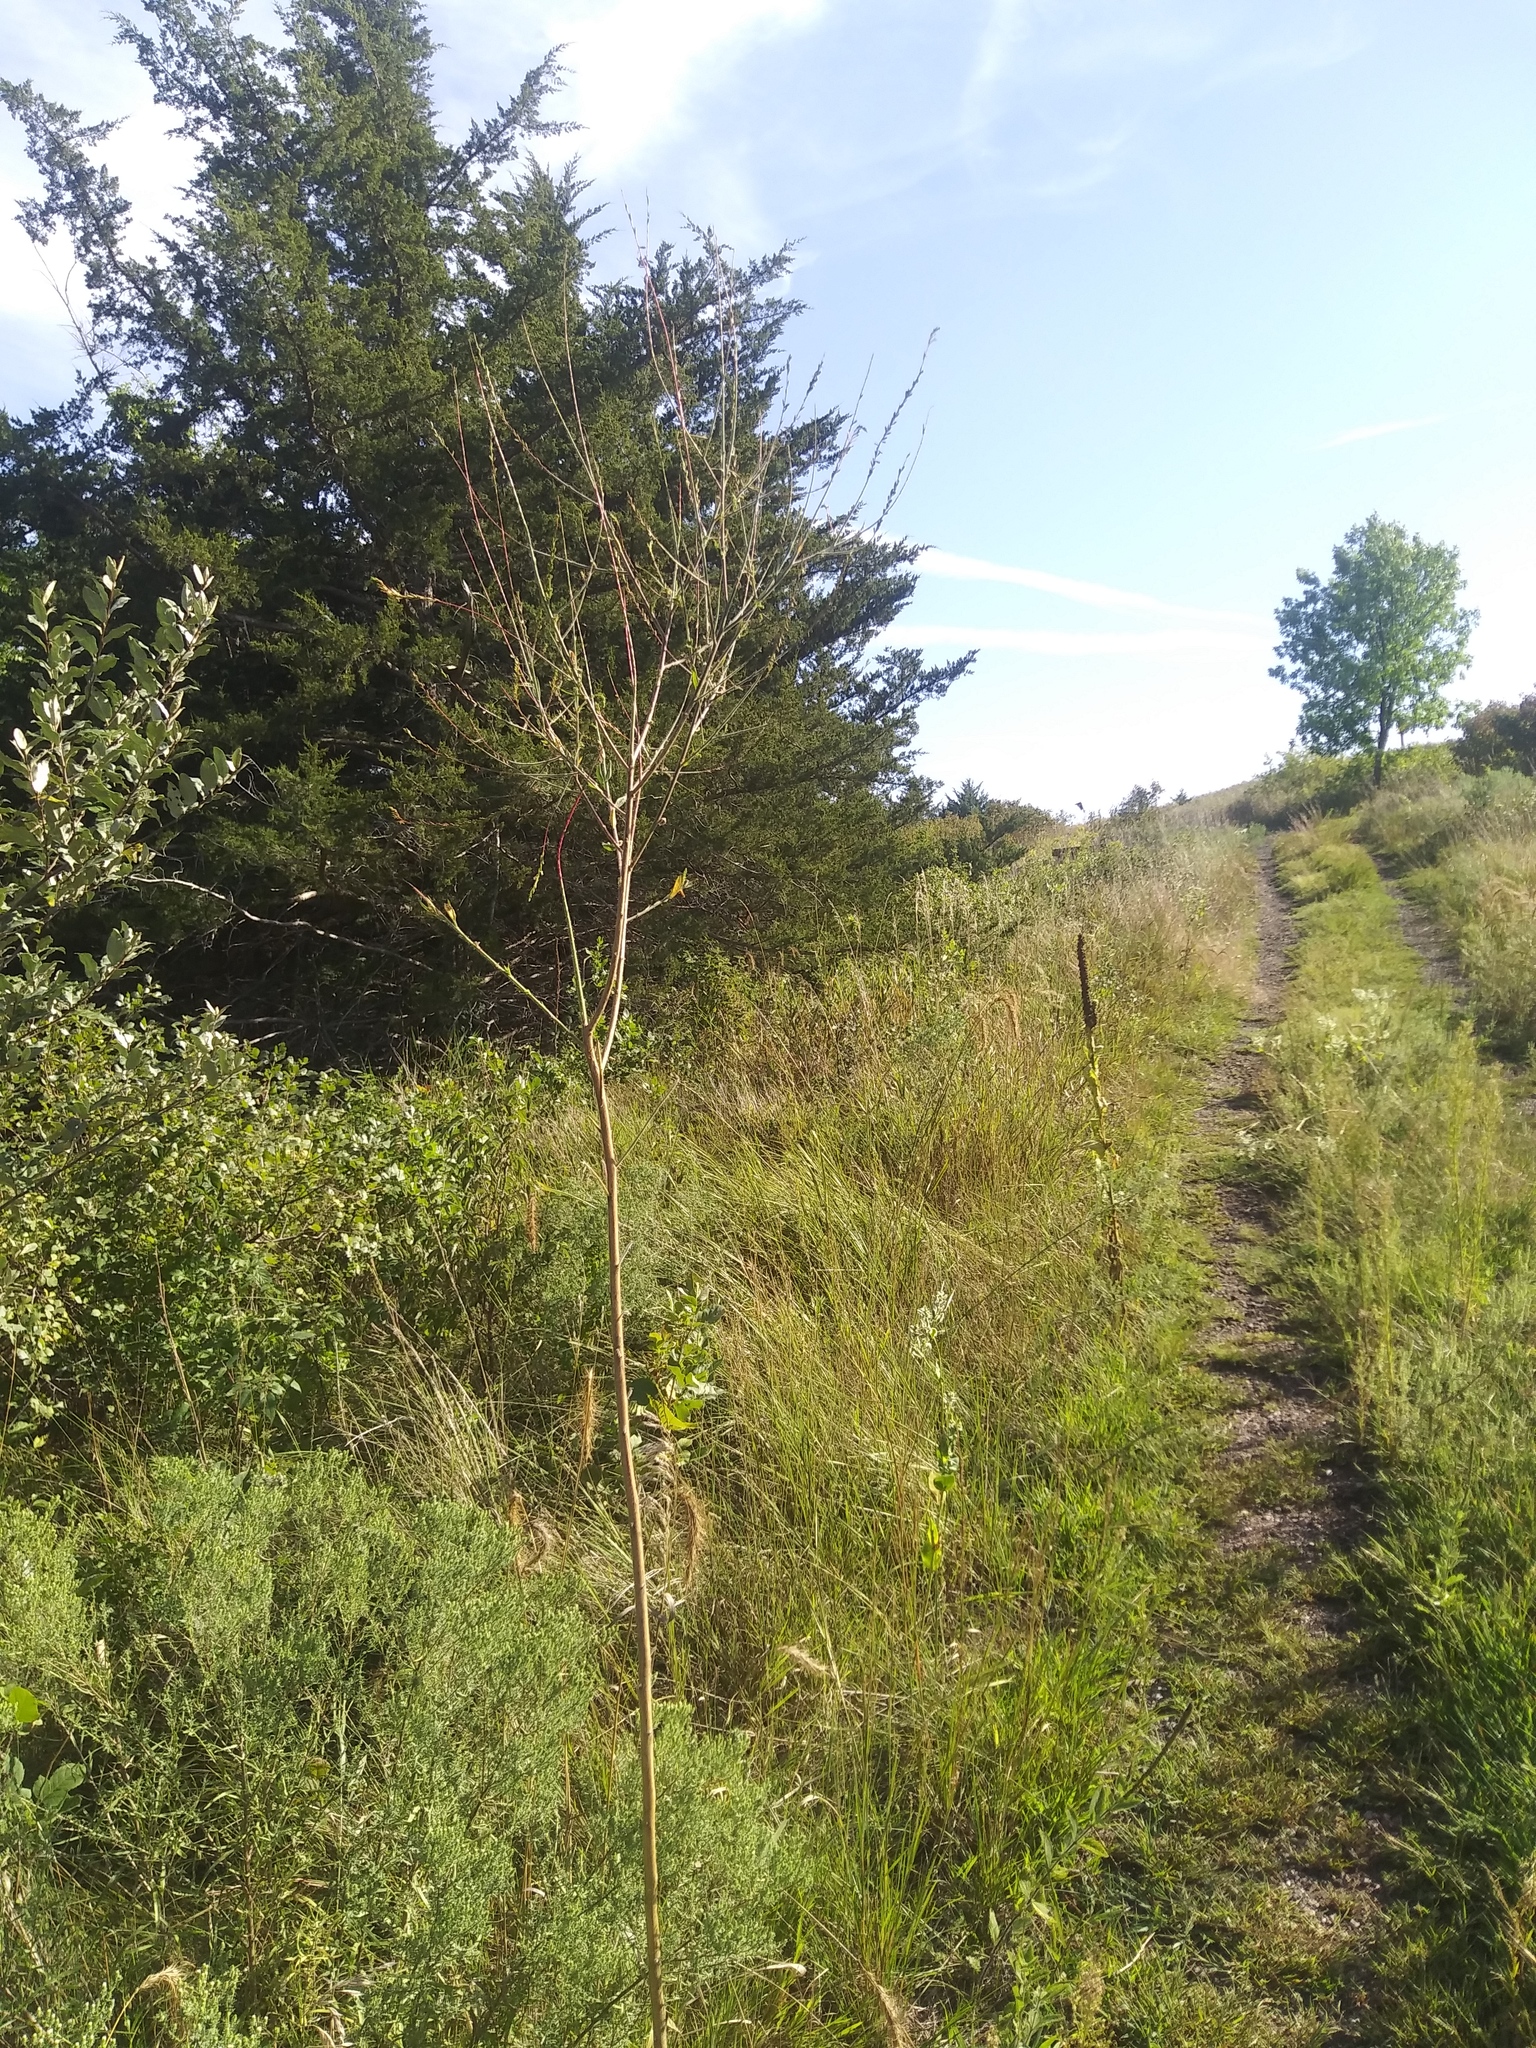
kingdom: Plantae
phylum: Tracheophyta
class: Magnoliopsida
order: Myrtales
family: Onagraceae
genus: Oenothera
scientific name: Oenothera curtiflora
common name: Velvetweed
